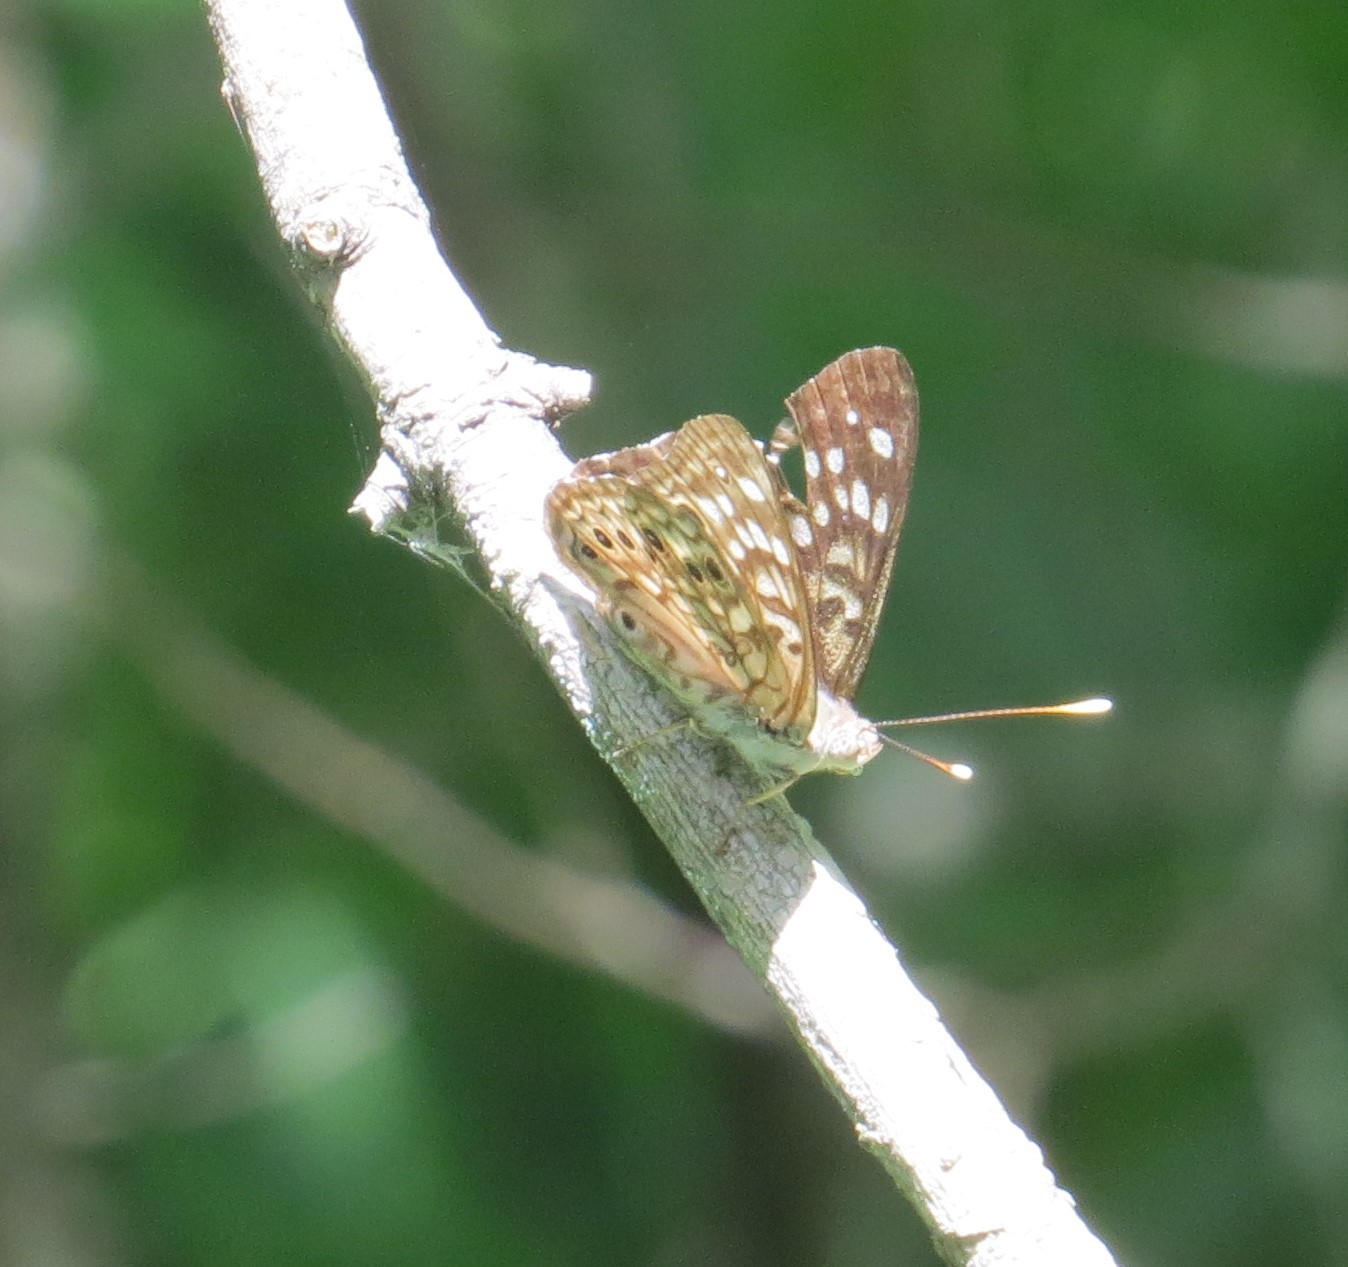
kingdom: Animalia
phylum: Arthropoda
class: Insecta
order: Lepidoptera
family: Nymphalidae
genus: Asterocampa
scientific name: Asterocampa celtis
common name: Hackberry emperor
